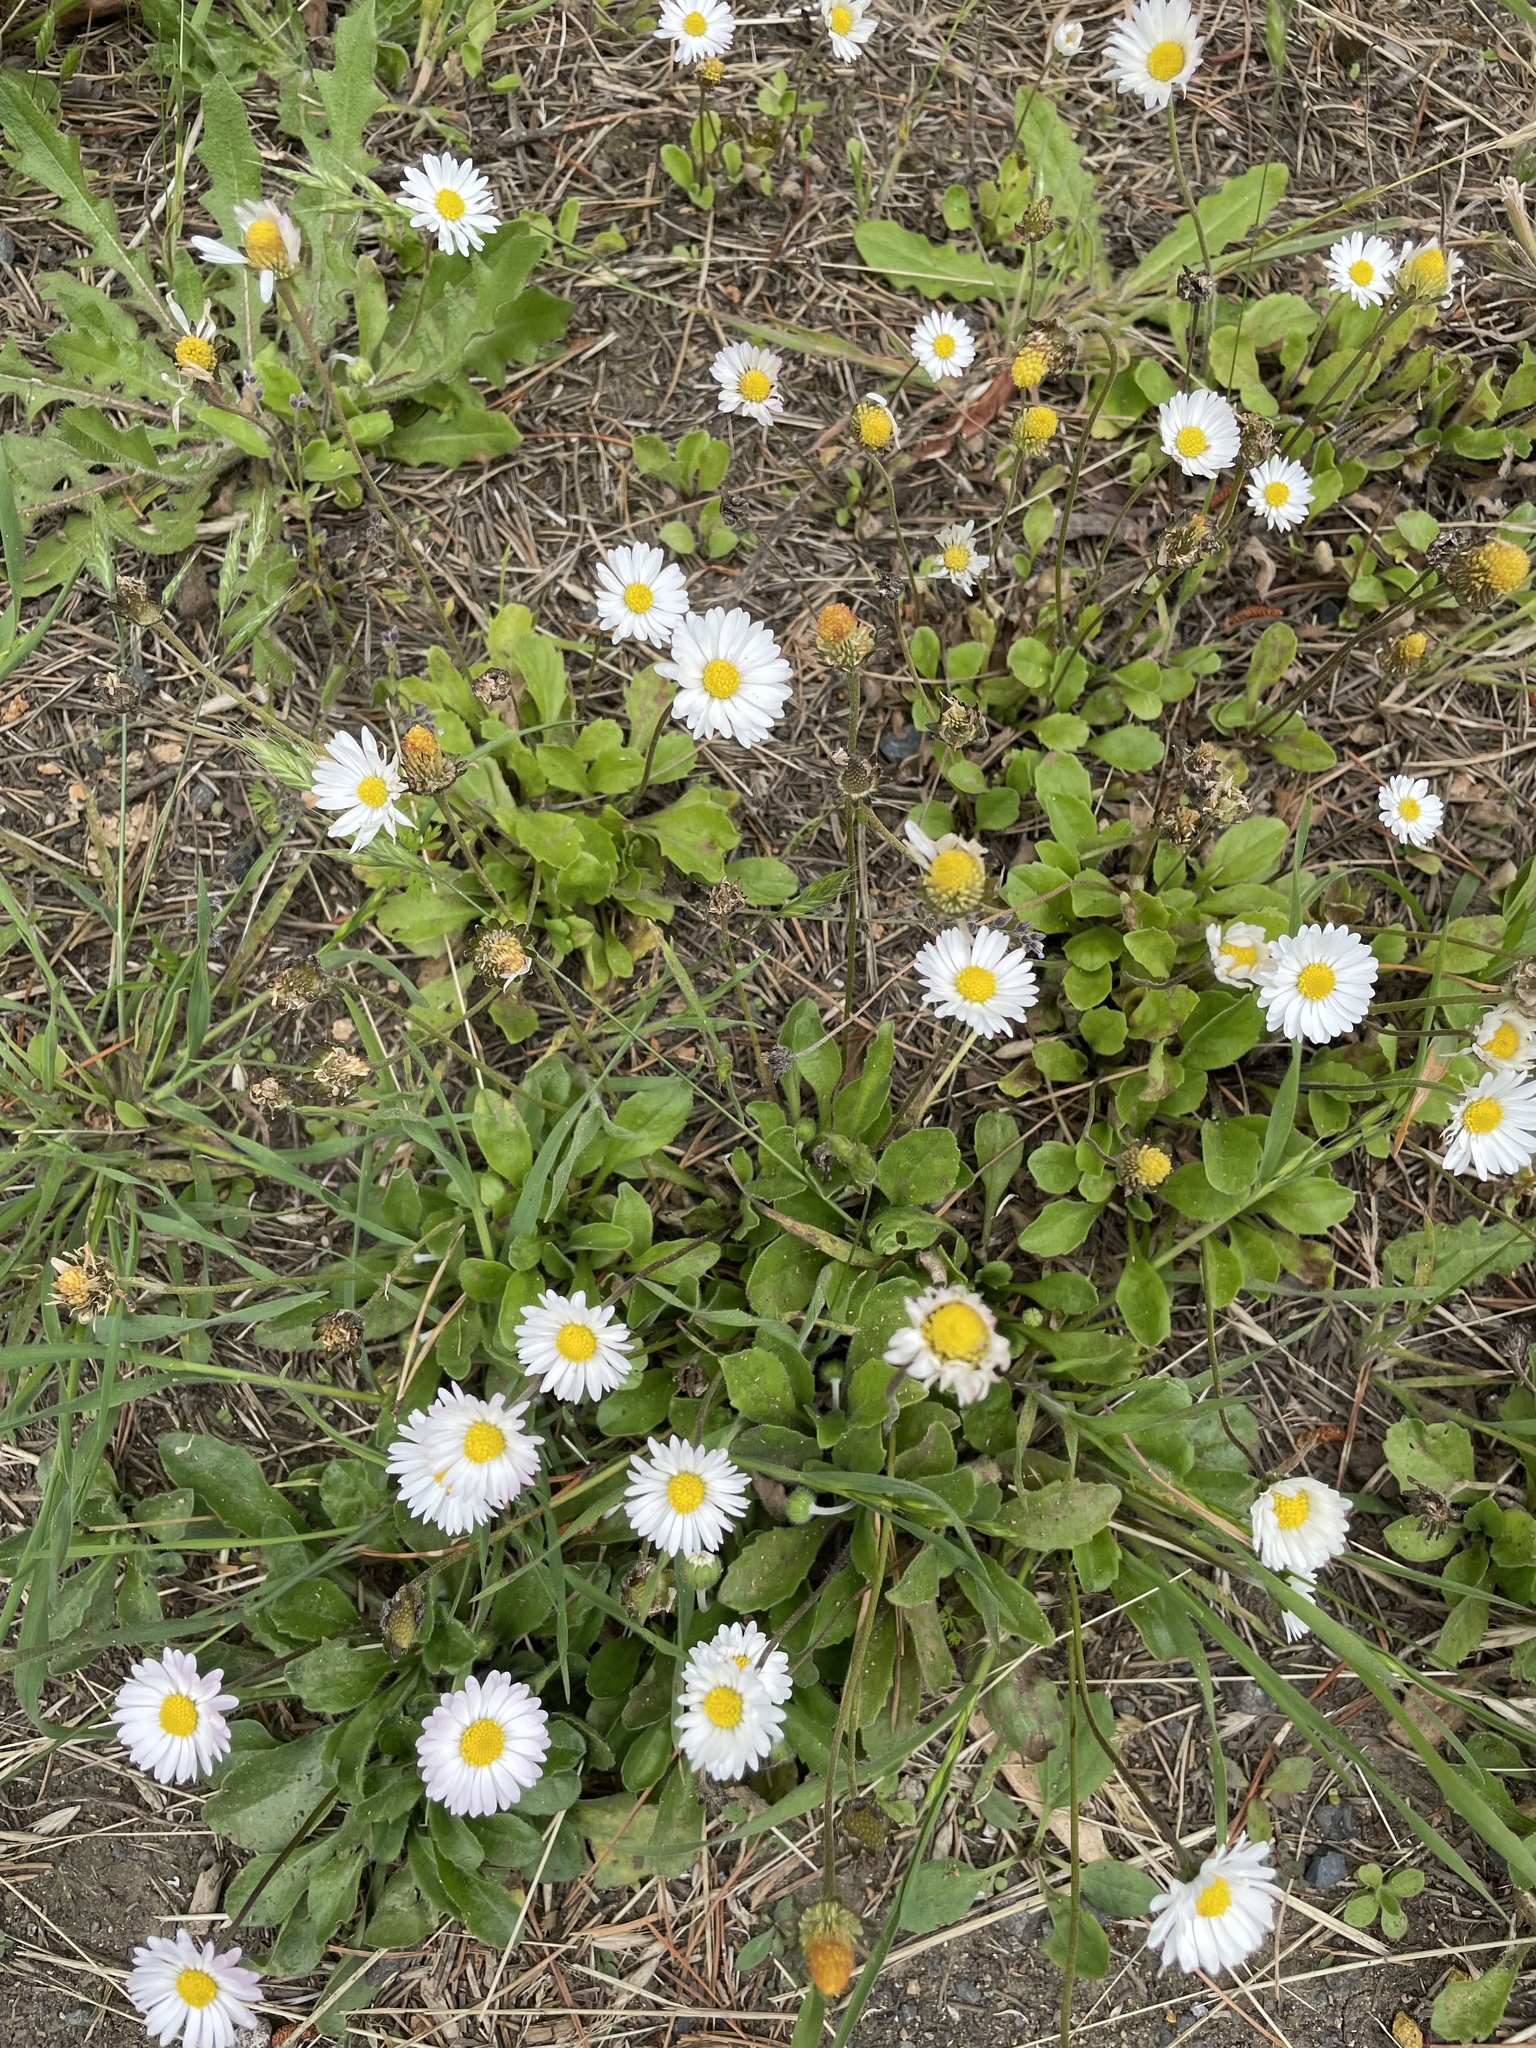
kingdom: Plantae
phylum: Tracheophyta
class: Magnoliopsida
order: Asterales
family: Asteraceae
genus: Bellis
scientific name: Bellis perennis
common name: Lawndaisy
